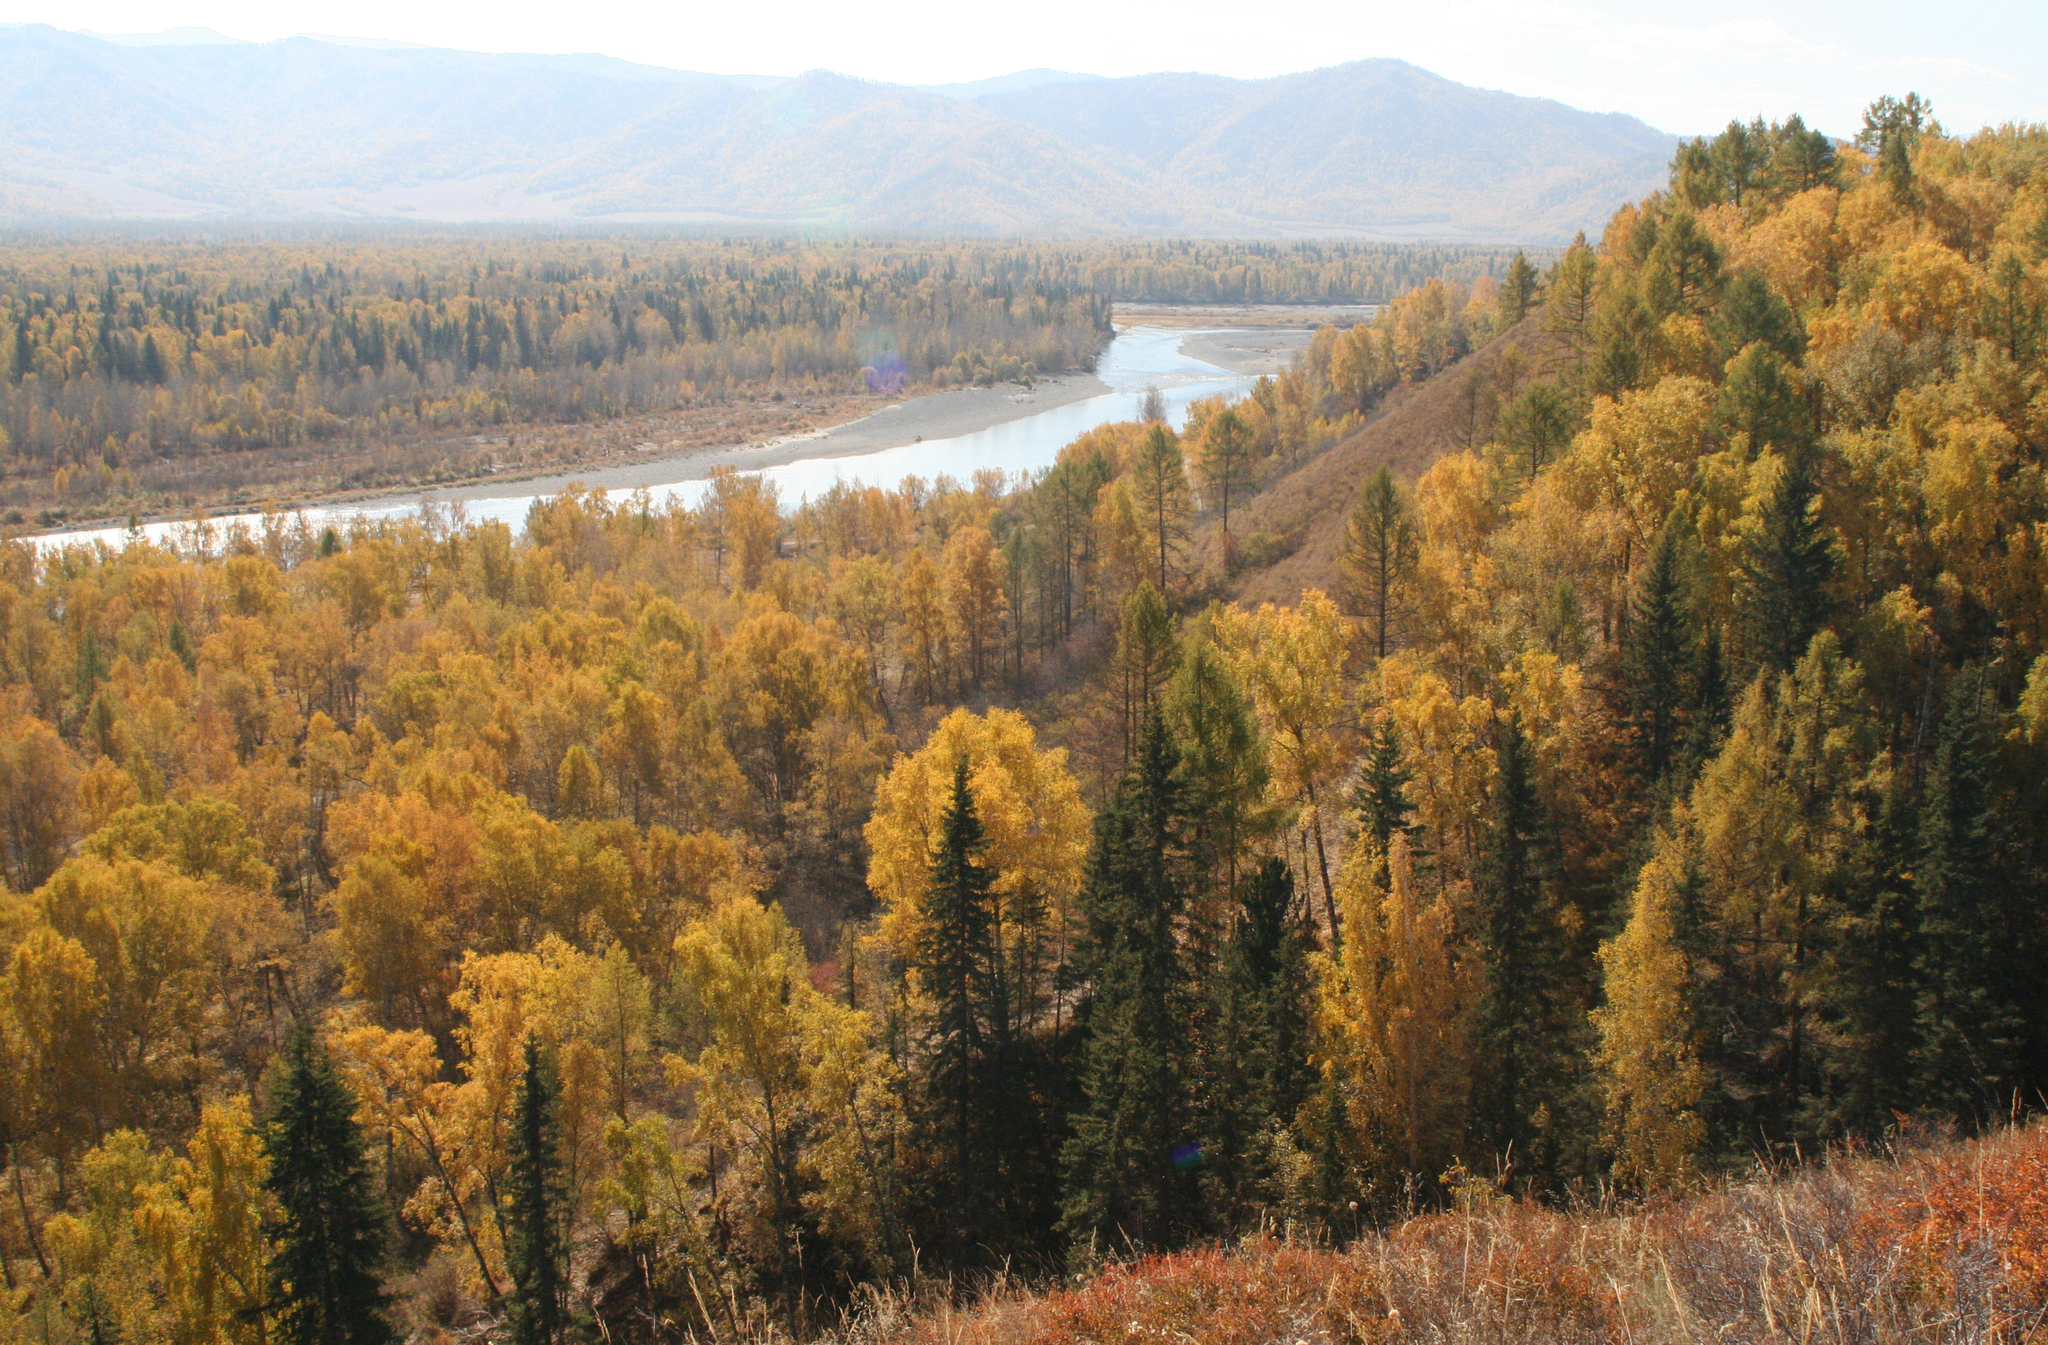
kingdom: Plantae
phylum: Tracheophyta
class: Magnoliopsida
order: Fagales
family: Betulaceae
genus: Betula
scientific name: Betula pendula
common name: Silver birch
